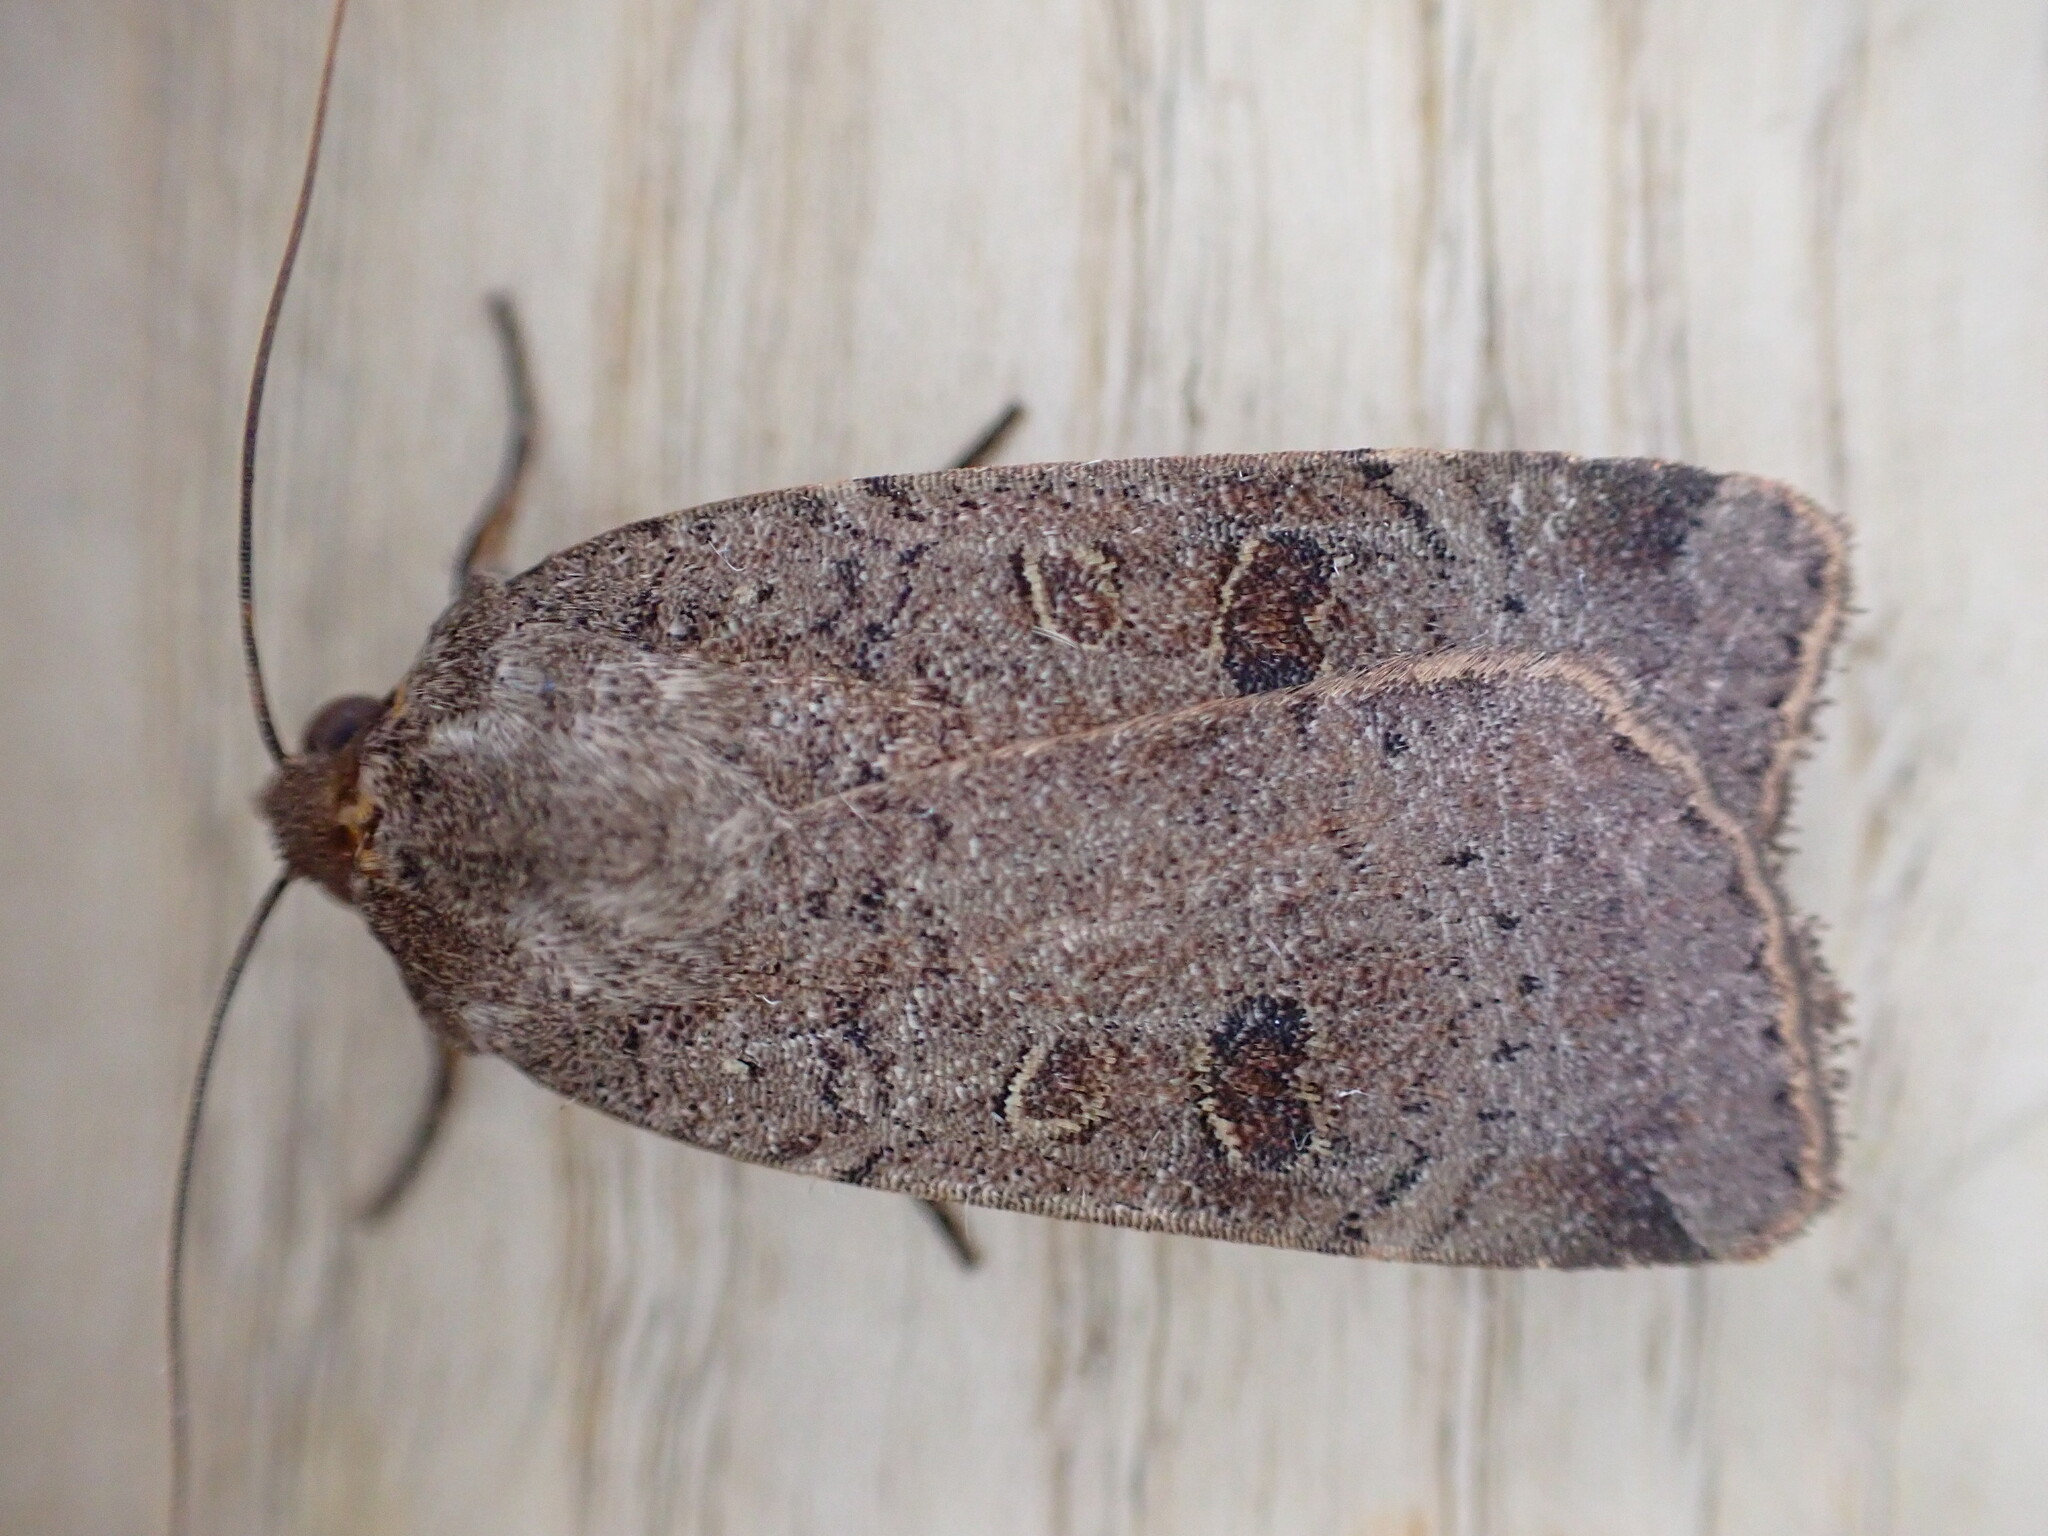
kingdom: Animalia
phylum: Arthropoda
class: Insecta
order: Lepidoptera
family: Noctuidae
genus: Noctua
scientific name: Noctua comes
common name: Lesser yellow underwing
